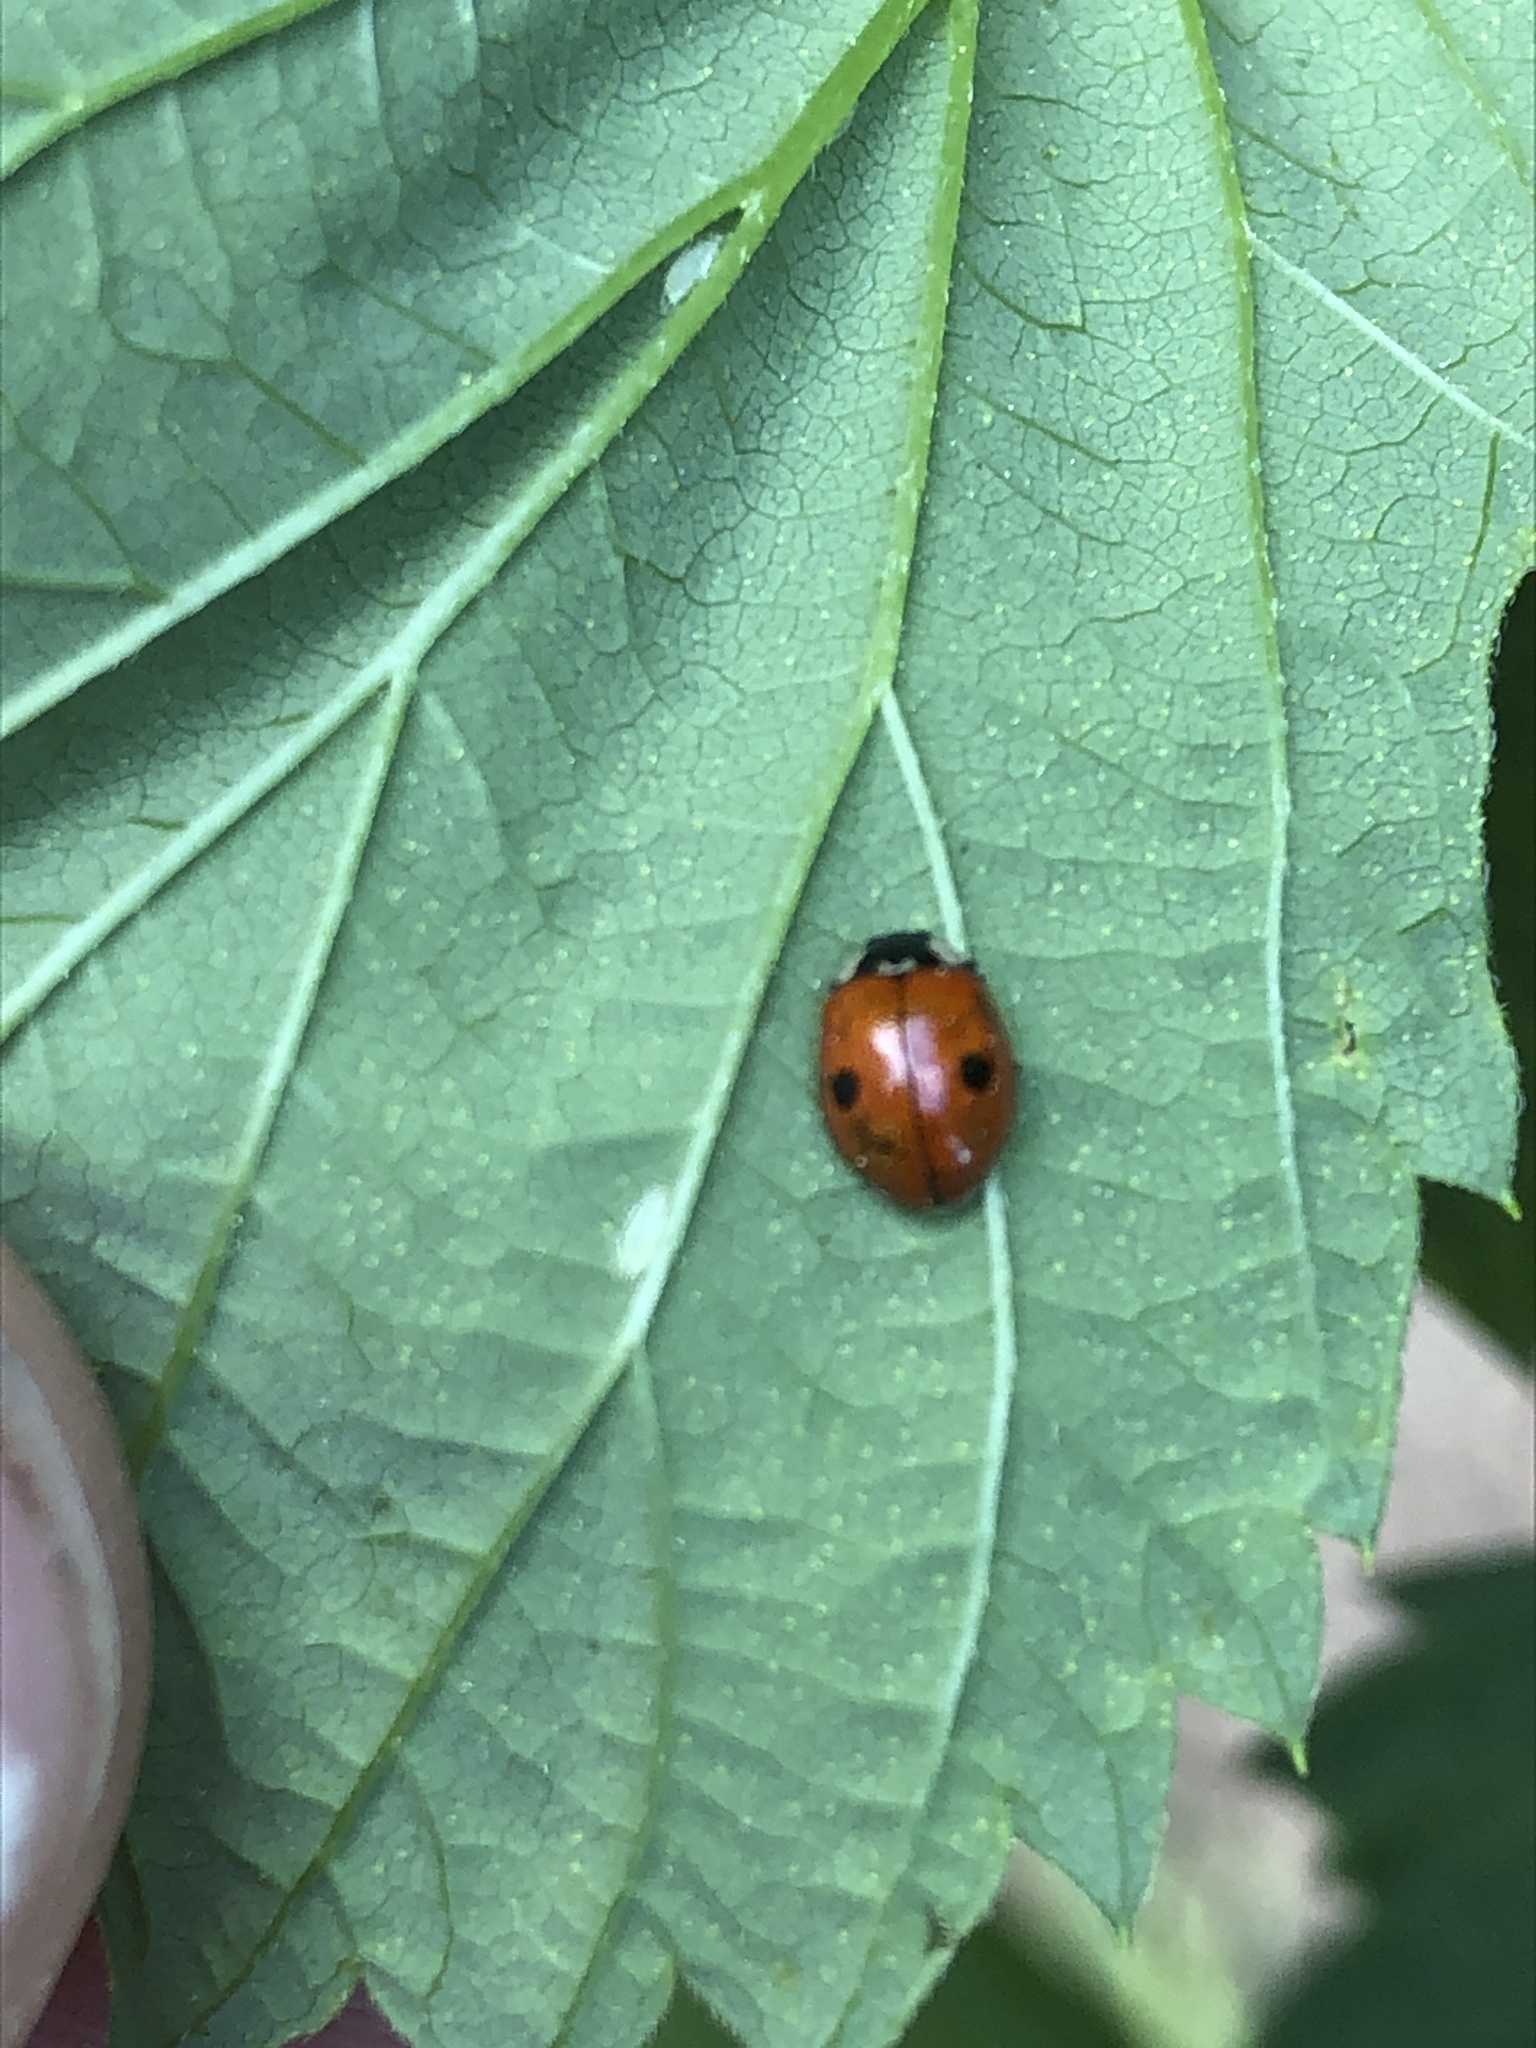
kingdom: Animalia
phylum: Arthropoda
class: Insecta
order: Coleoptera
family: Coccinellidae
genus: Adalia
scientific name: Adalia bipunctata
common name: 2-spot ladybird
